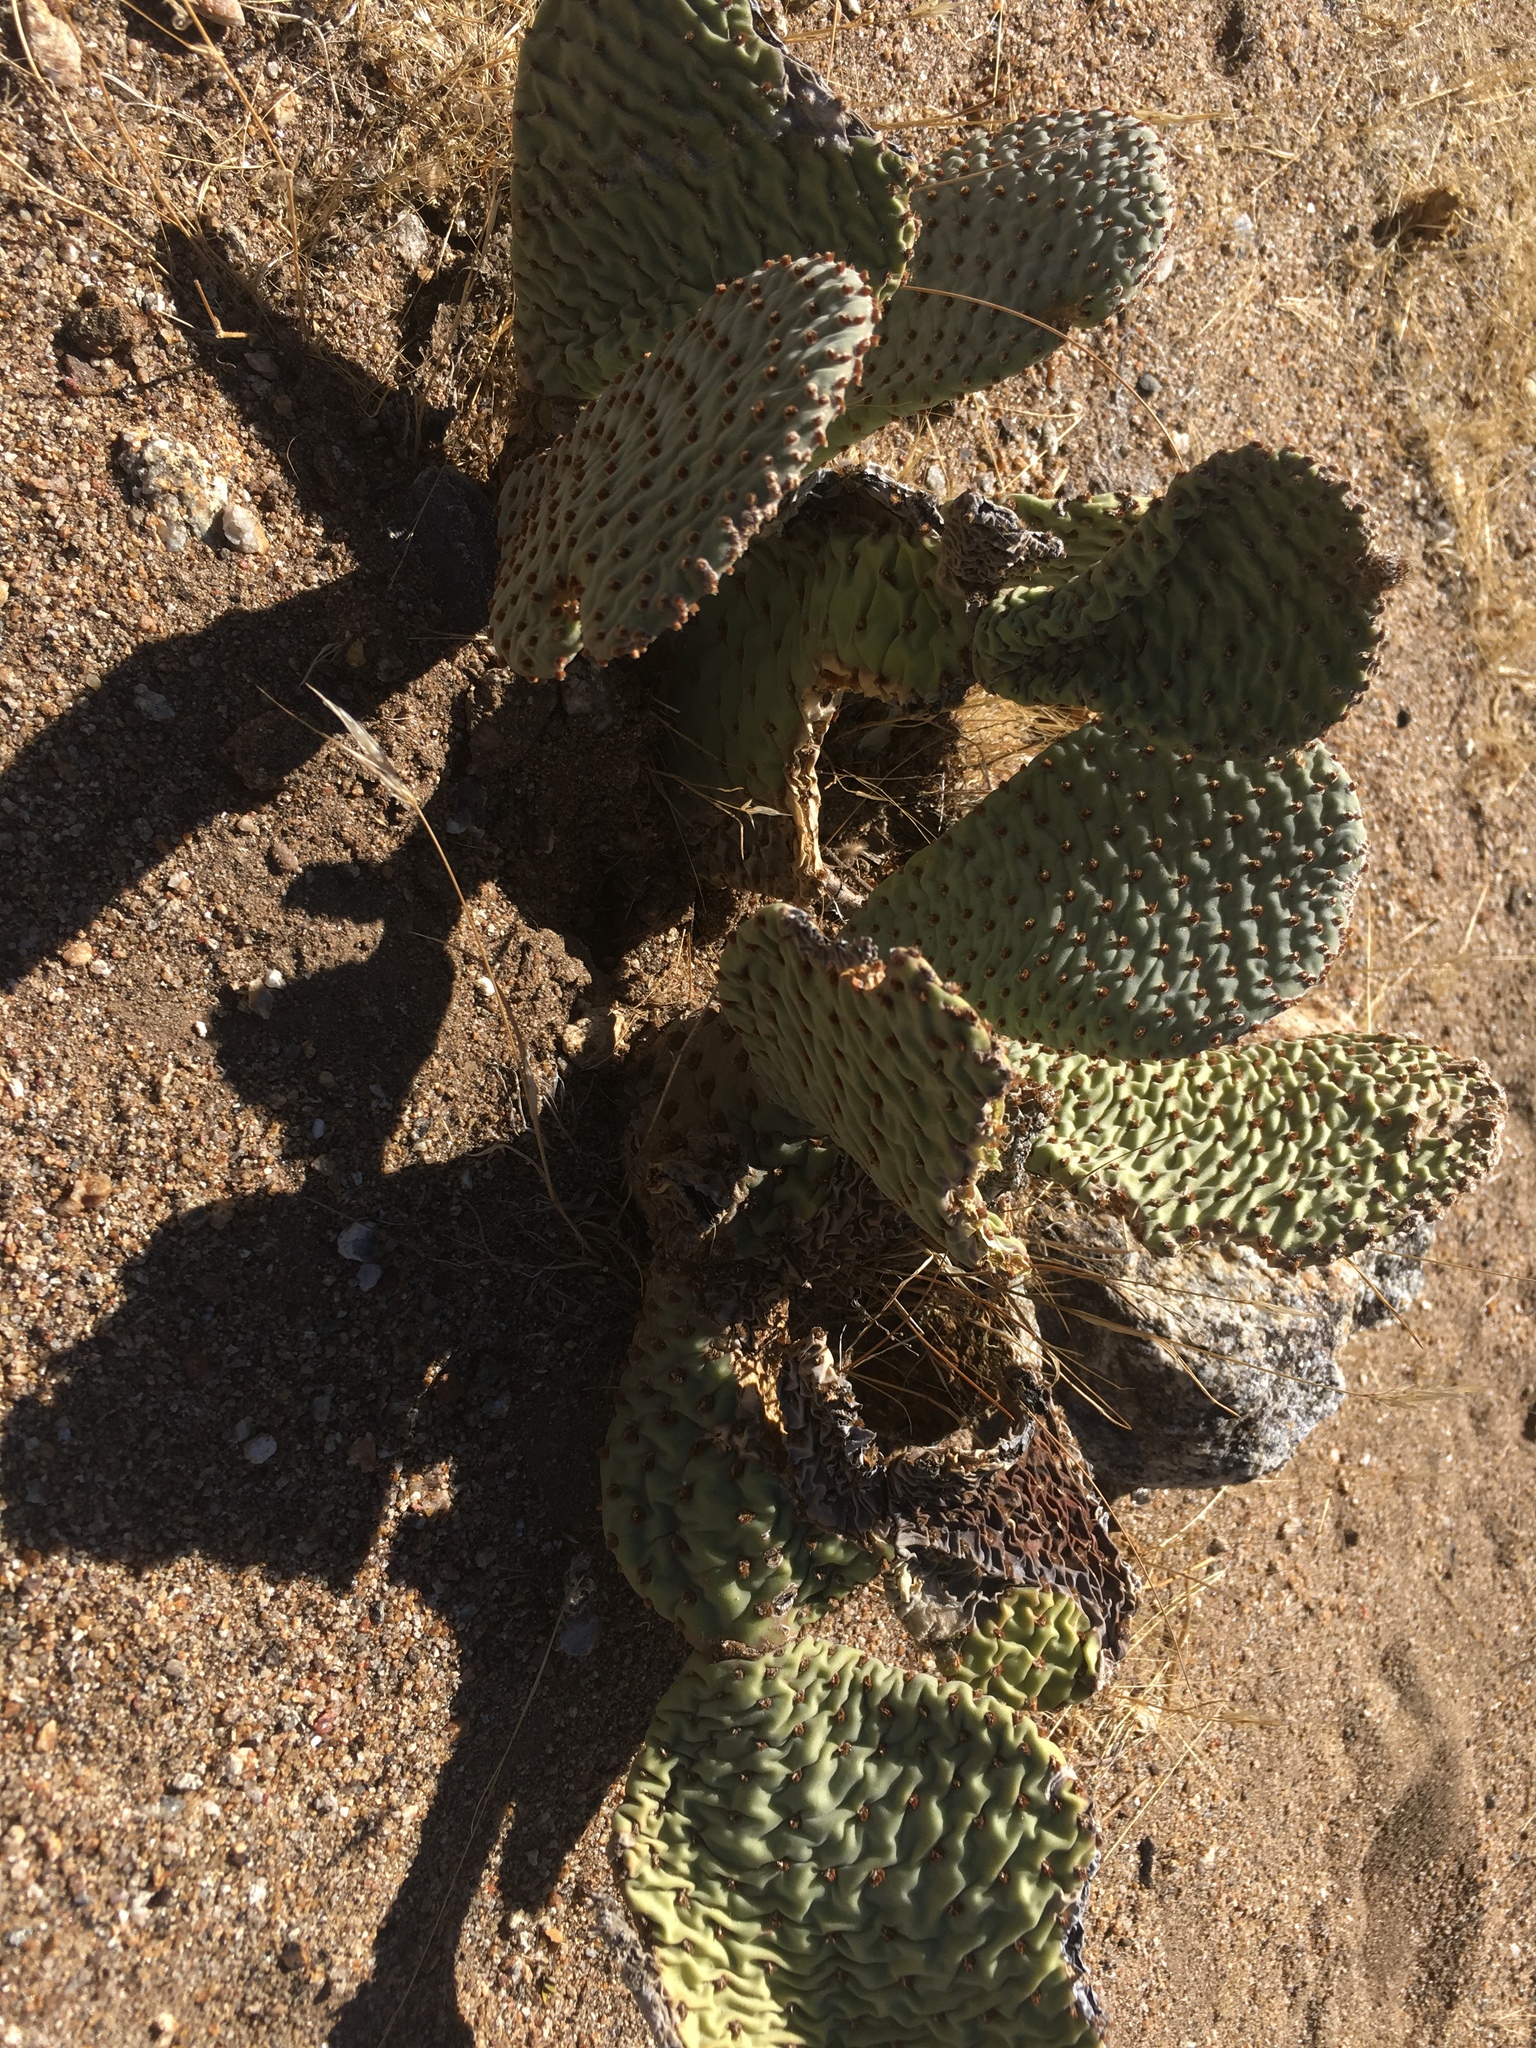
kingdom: Plantae
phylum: Tracheophyta
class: Magnoliopsida
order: Caryophyllales
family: Cactaceae
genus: Opuntia
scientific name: Opuntia basilaris
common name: Beavertail prickly-pear
